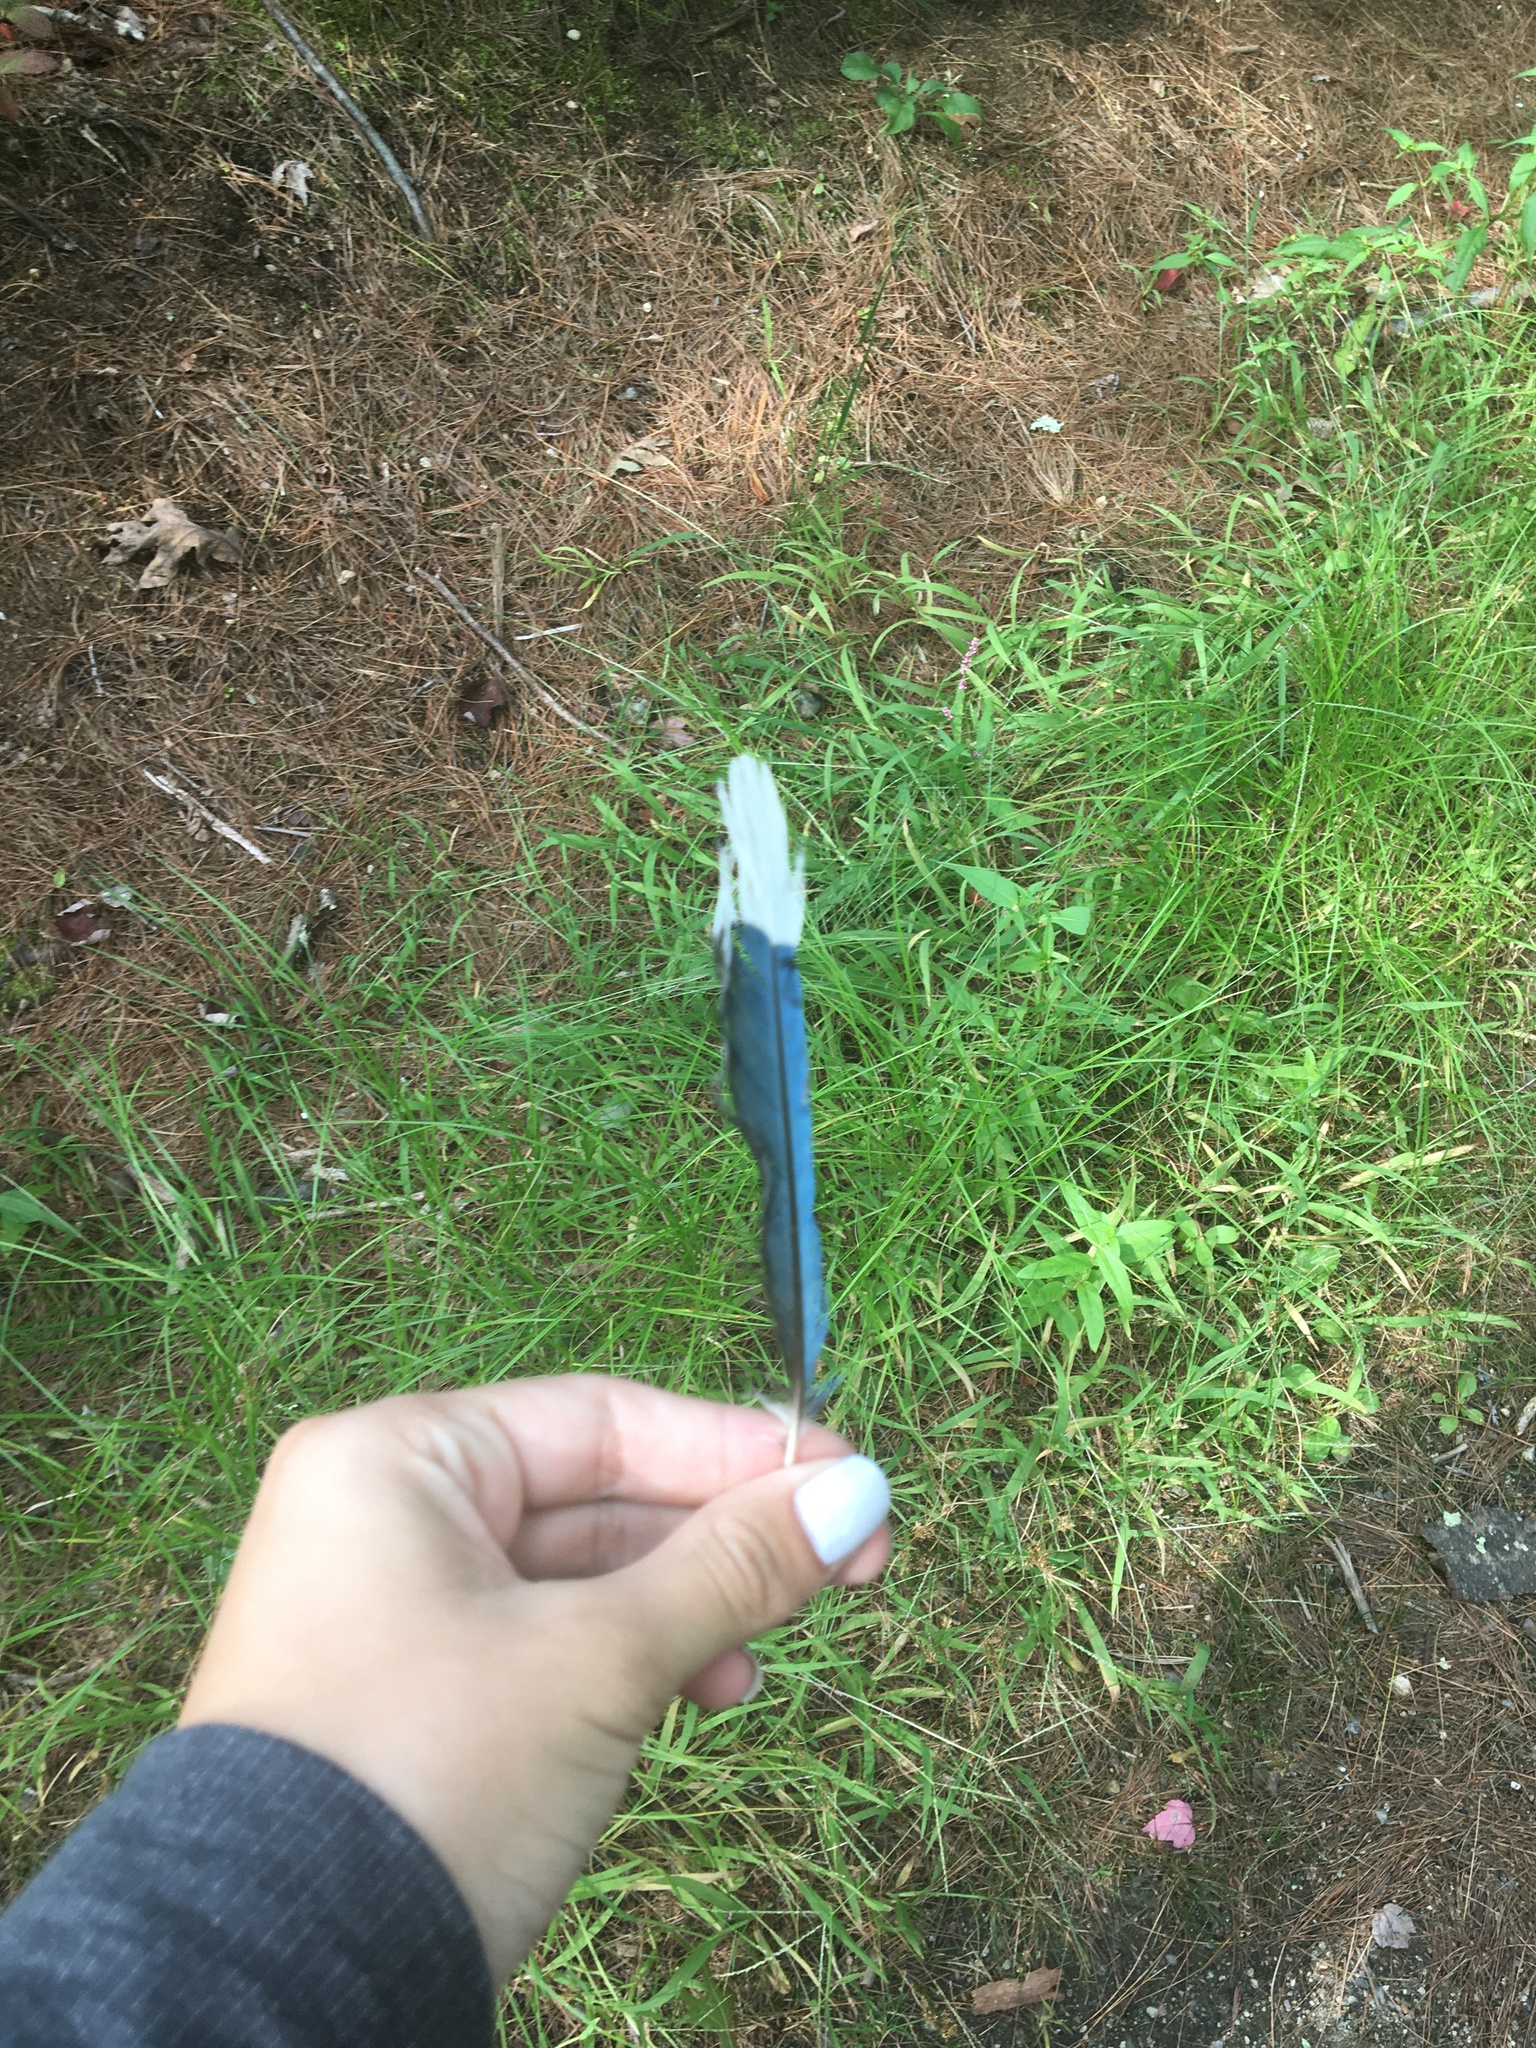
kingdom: Animalia
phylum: Chordata
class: Aves
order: Passeriformes
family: Corvidae
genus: Cyanocitta
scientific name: Cyanocitta cristata
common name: Blue jay
